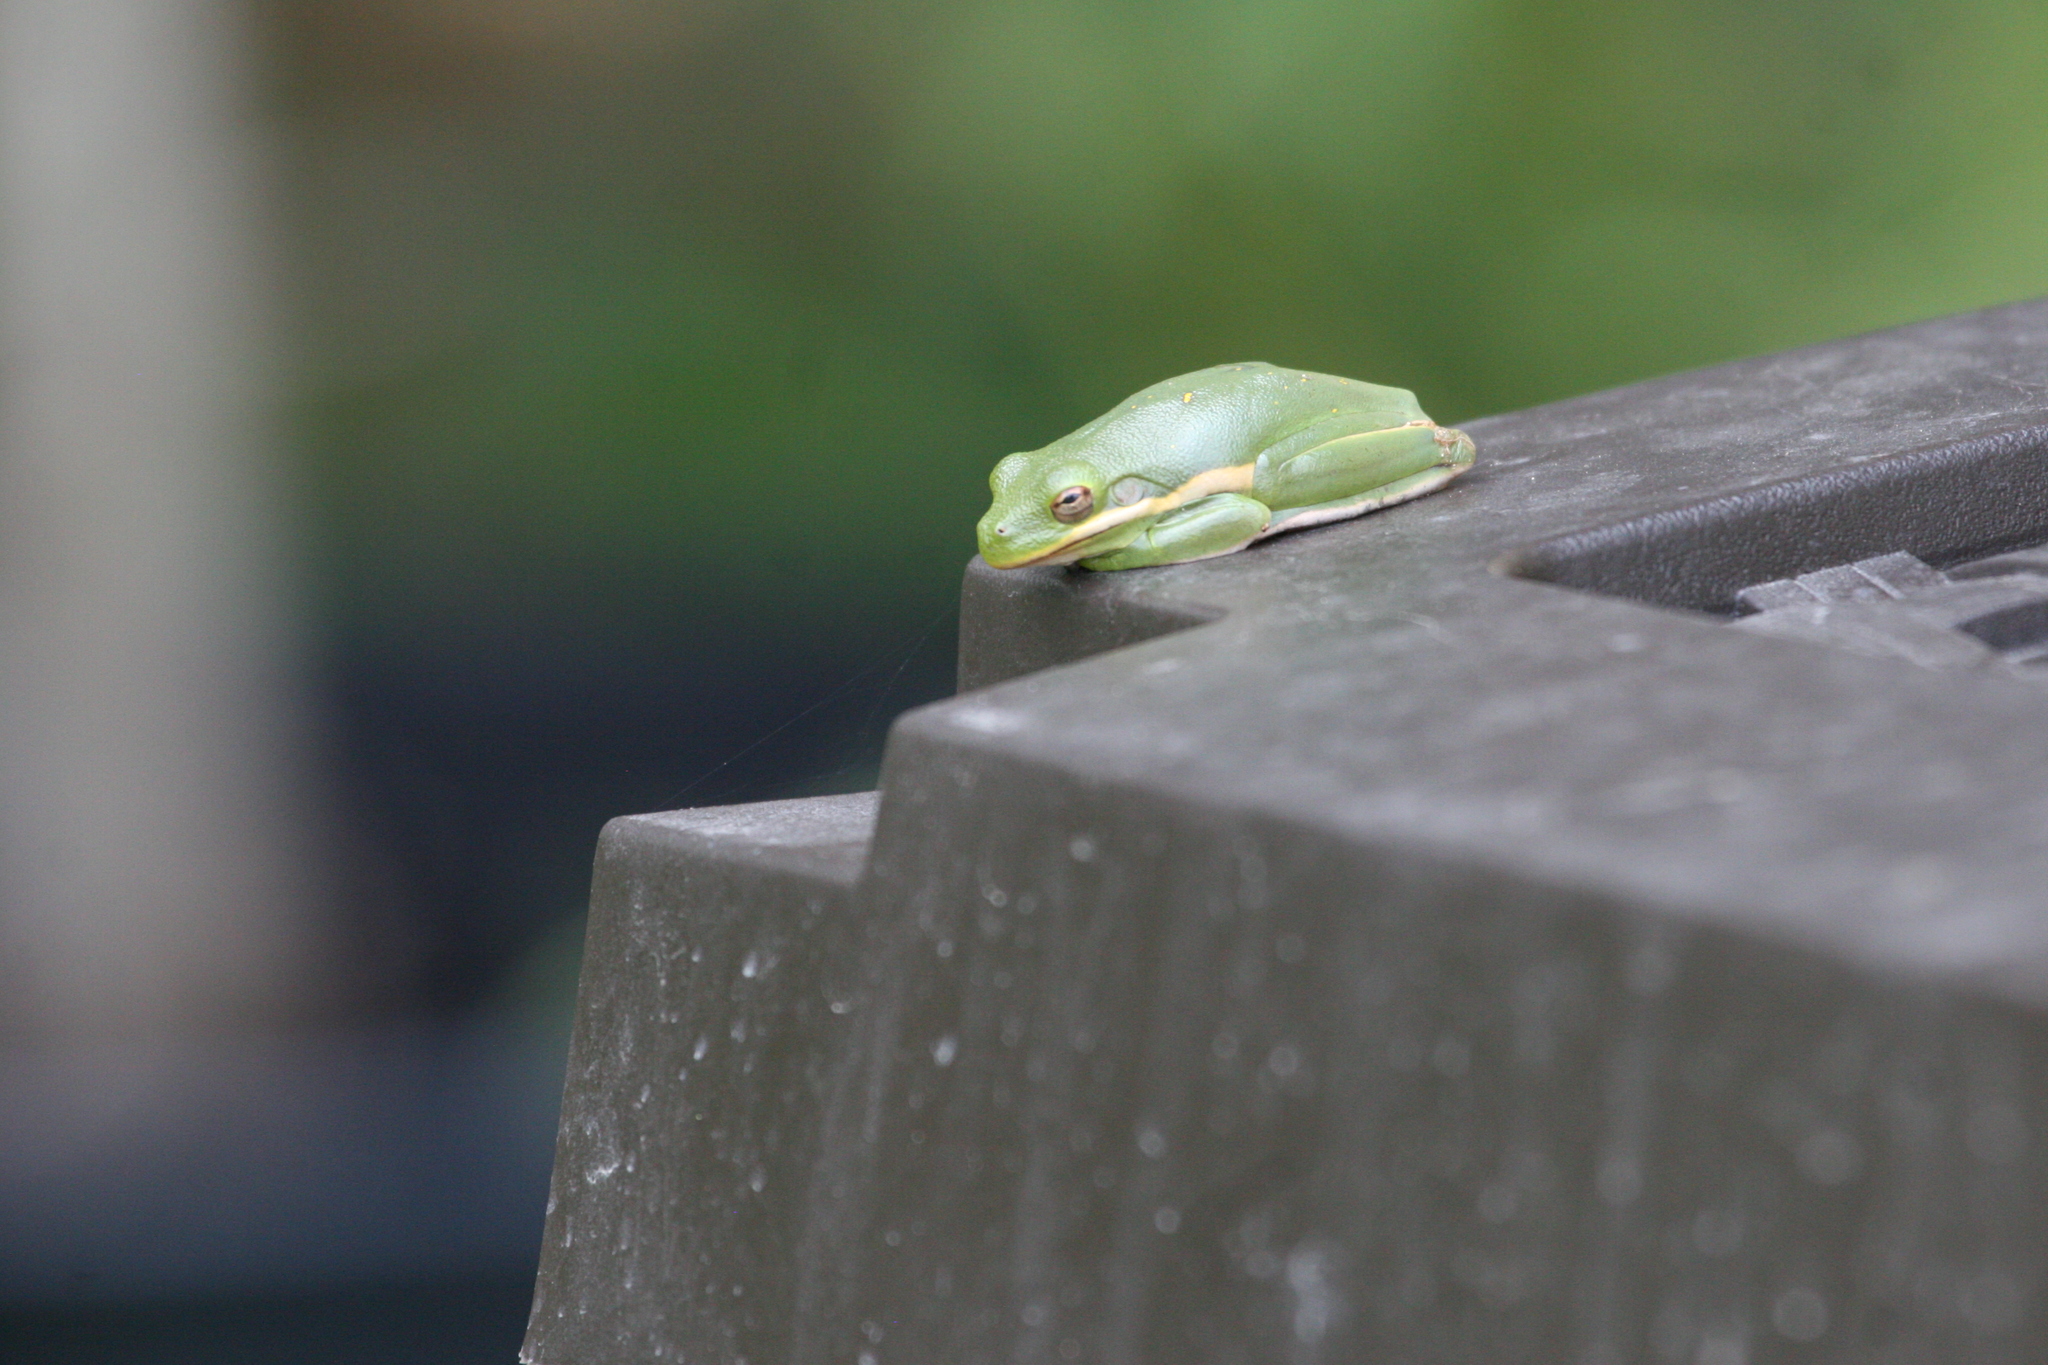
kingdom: Animalia
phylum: Chordata
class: Amphibia
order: Anura
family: Hylidae
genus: Dryophytes
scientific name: Dryophytes cinereus
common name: Green treefrog
